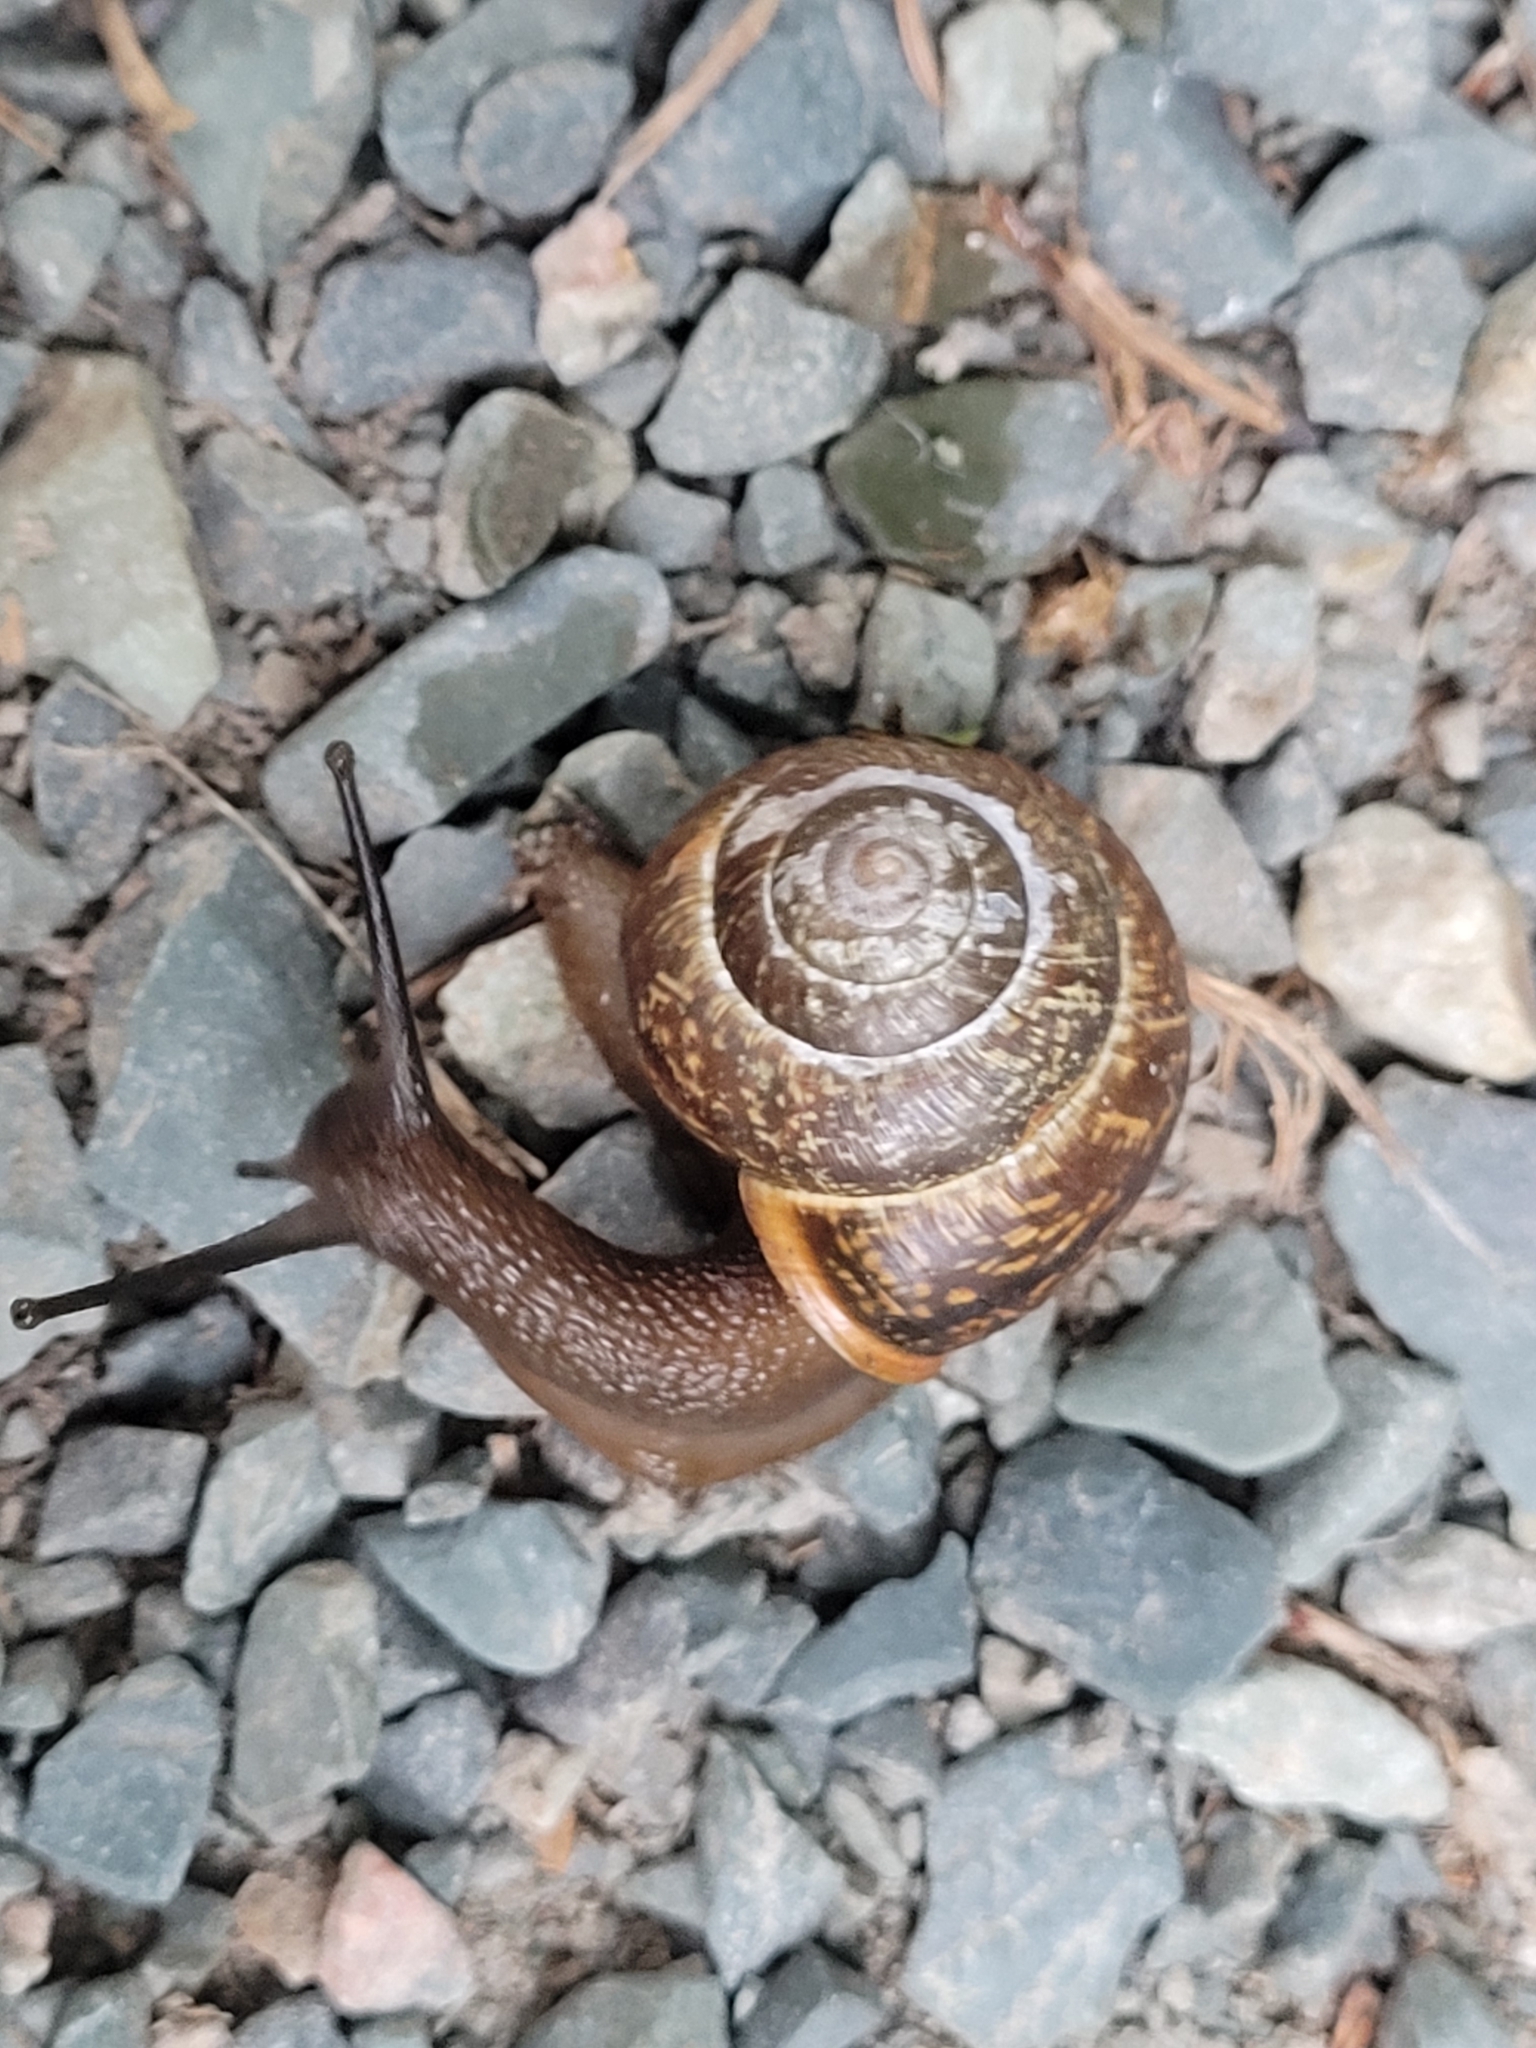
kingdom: Animalia
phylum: Mollusca
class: Gastropoda
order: Stylommatophora
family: Helicidae
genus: Arianta
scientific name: Arianta arbustorum
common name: Copse snail
